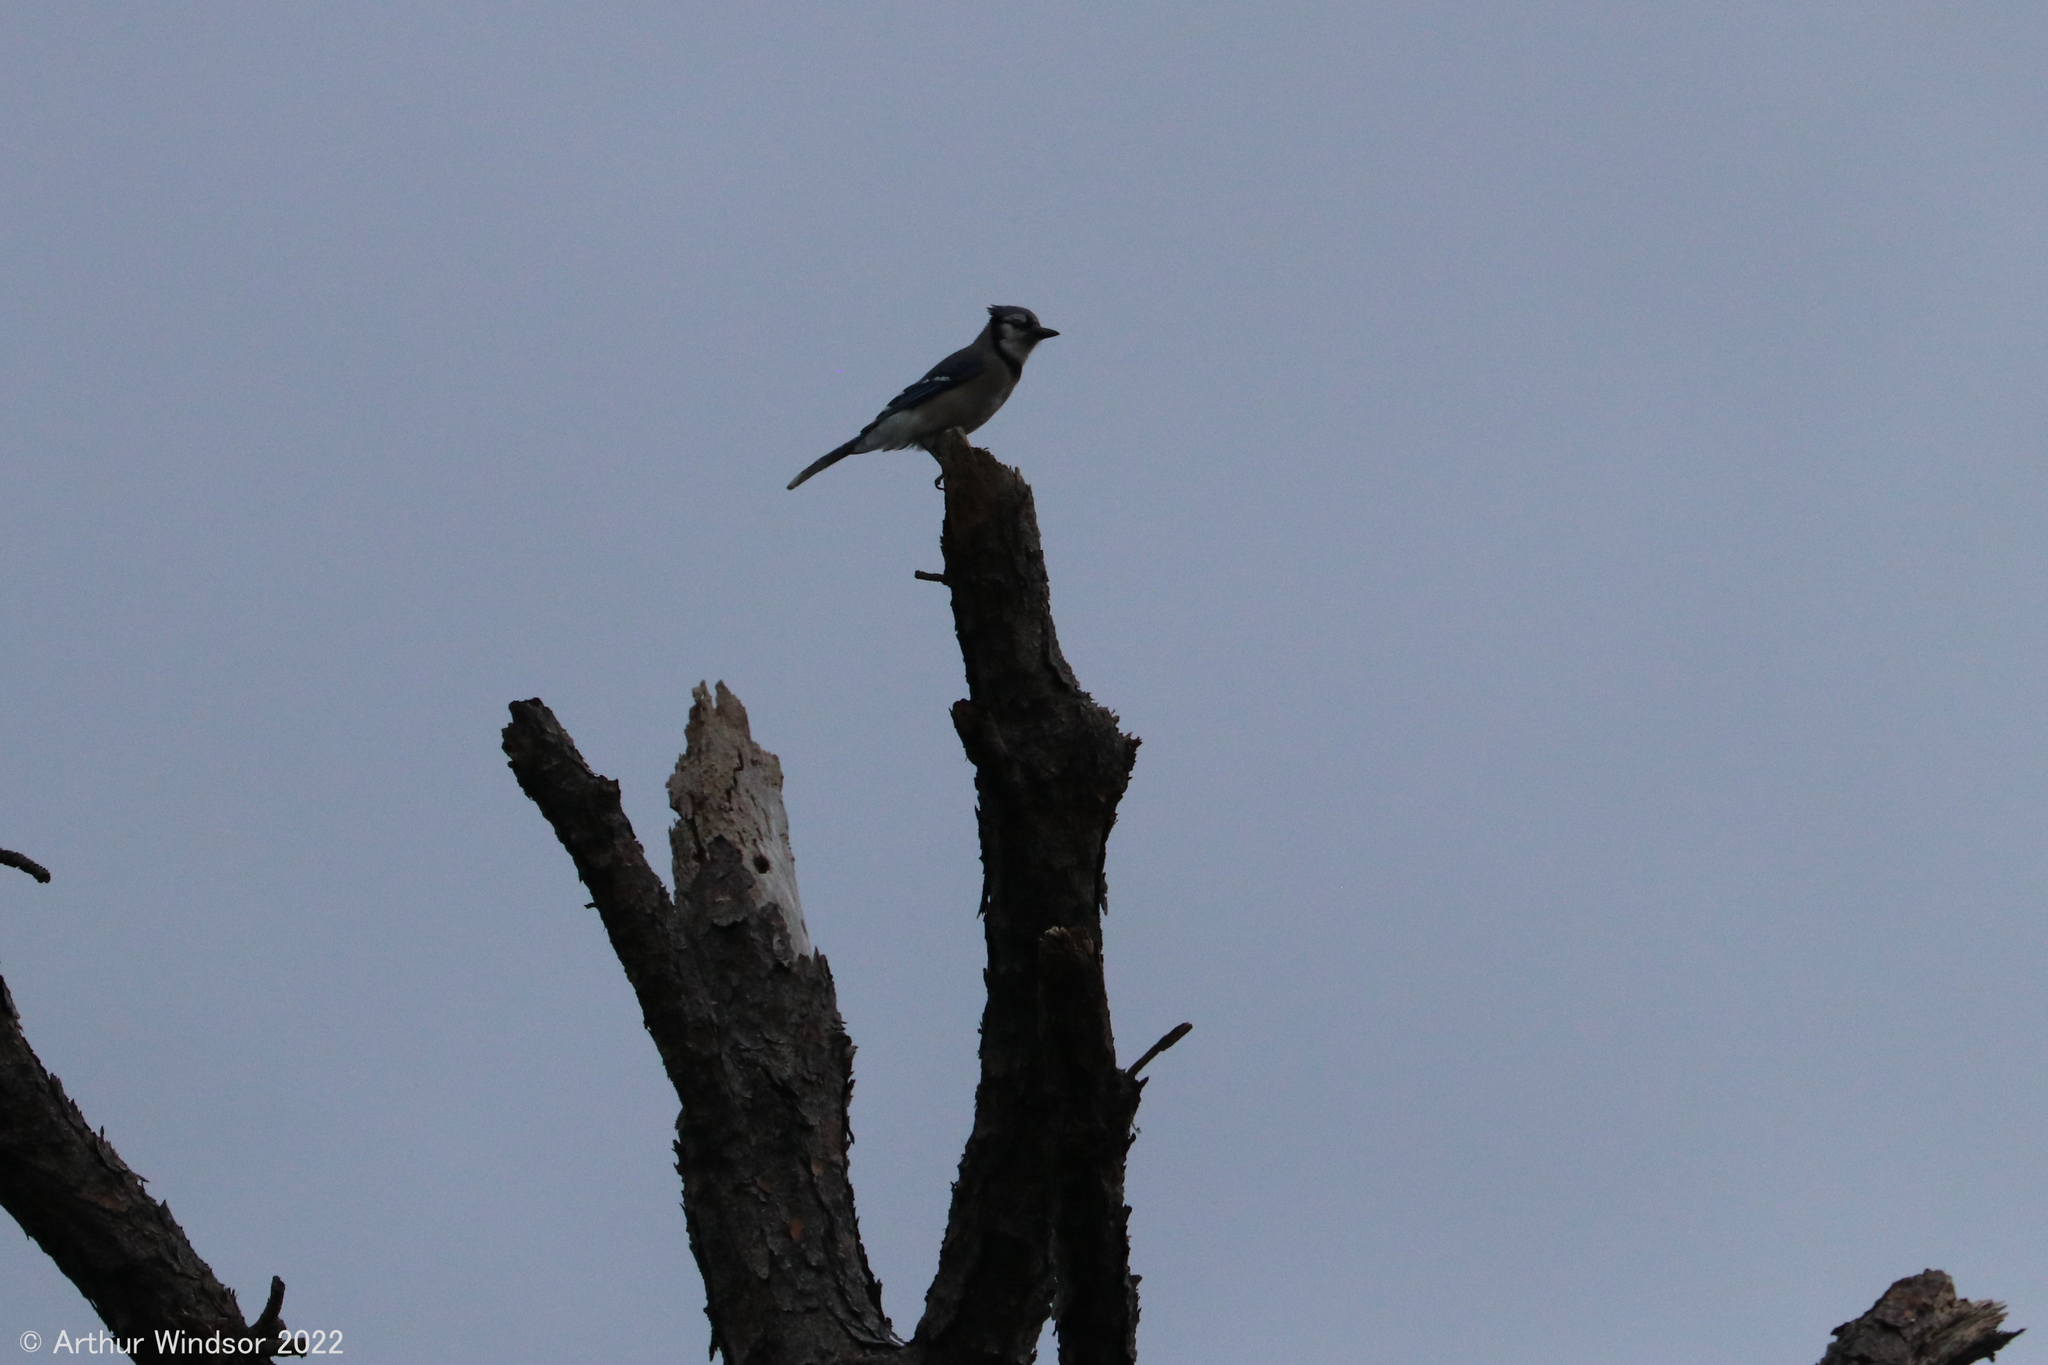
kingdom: Animalia
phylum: Chordata
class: Aves
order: Passeriformes
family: Corvidae
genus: Cyanocitta
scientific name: Cyanocitta cristata
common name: Blue jay
